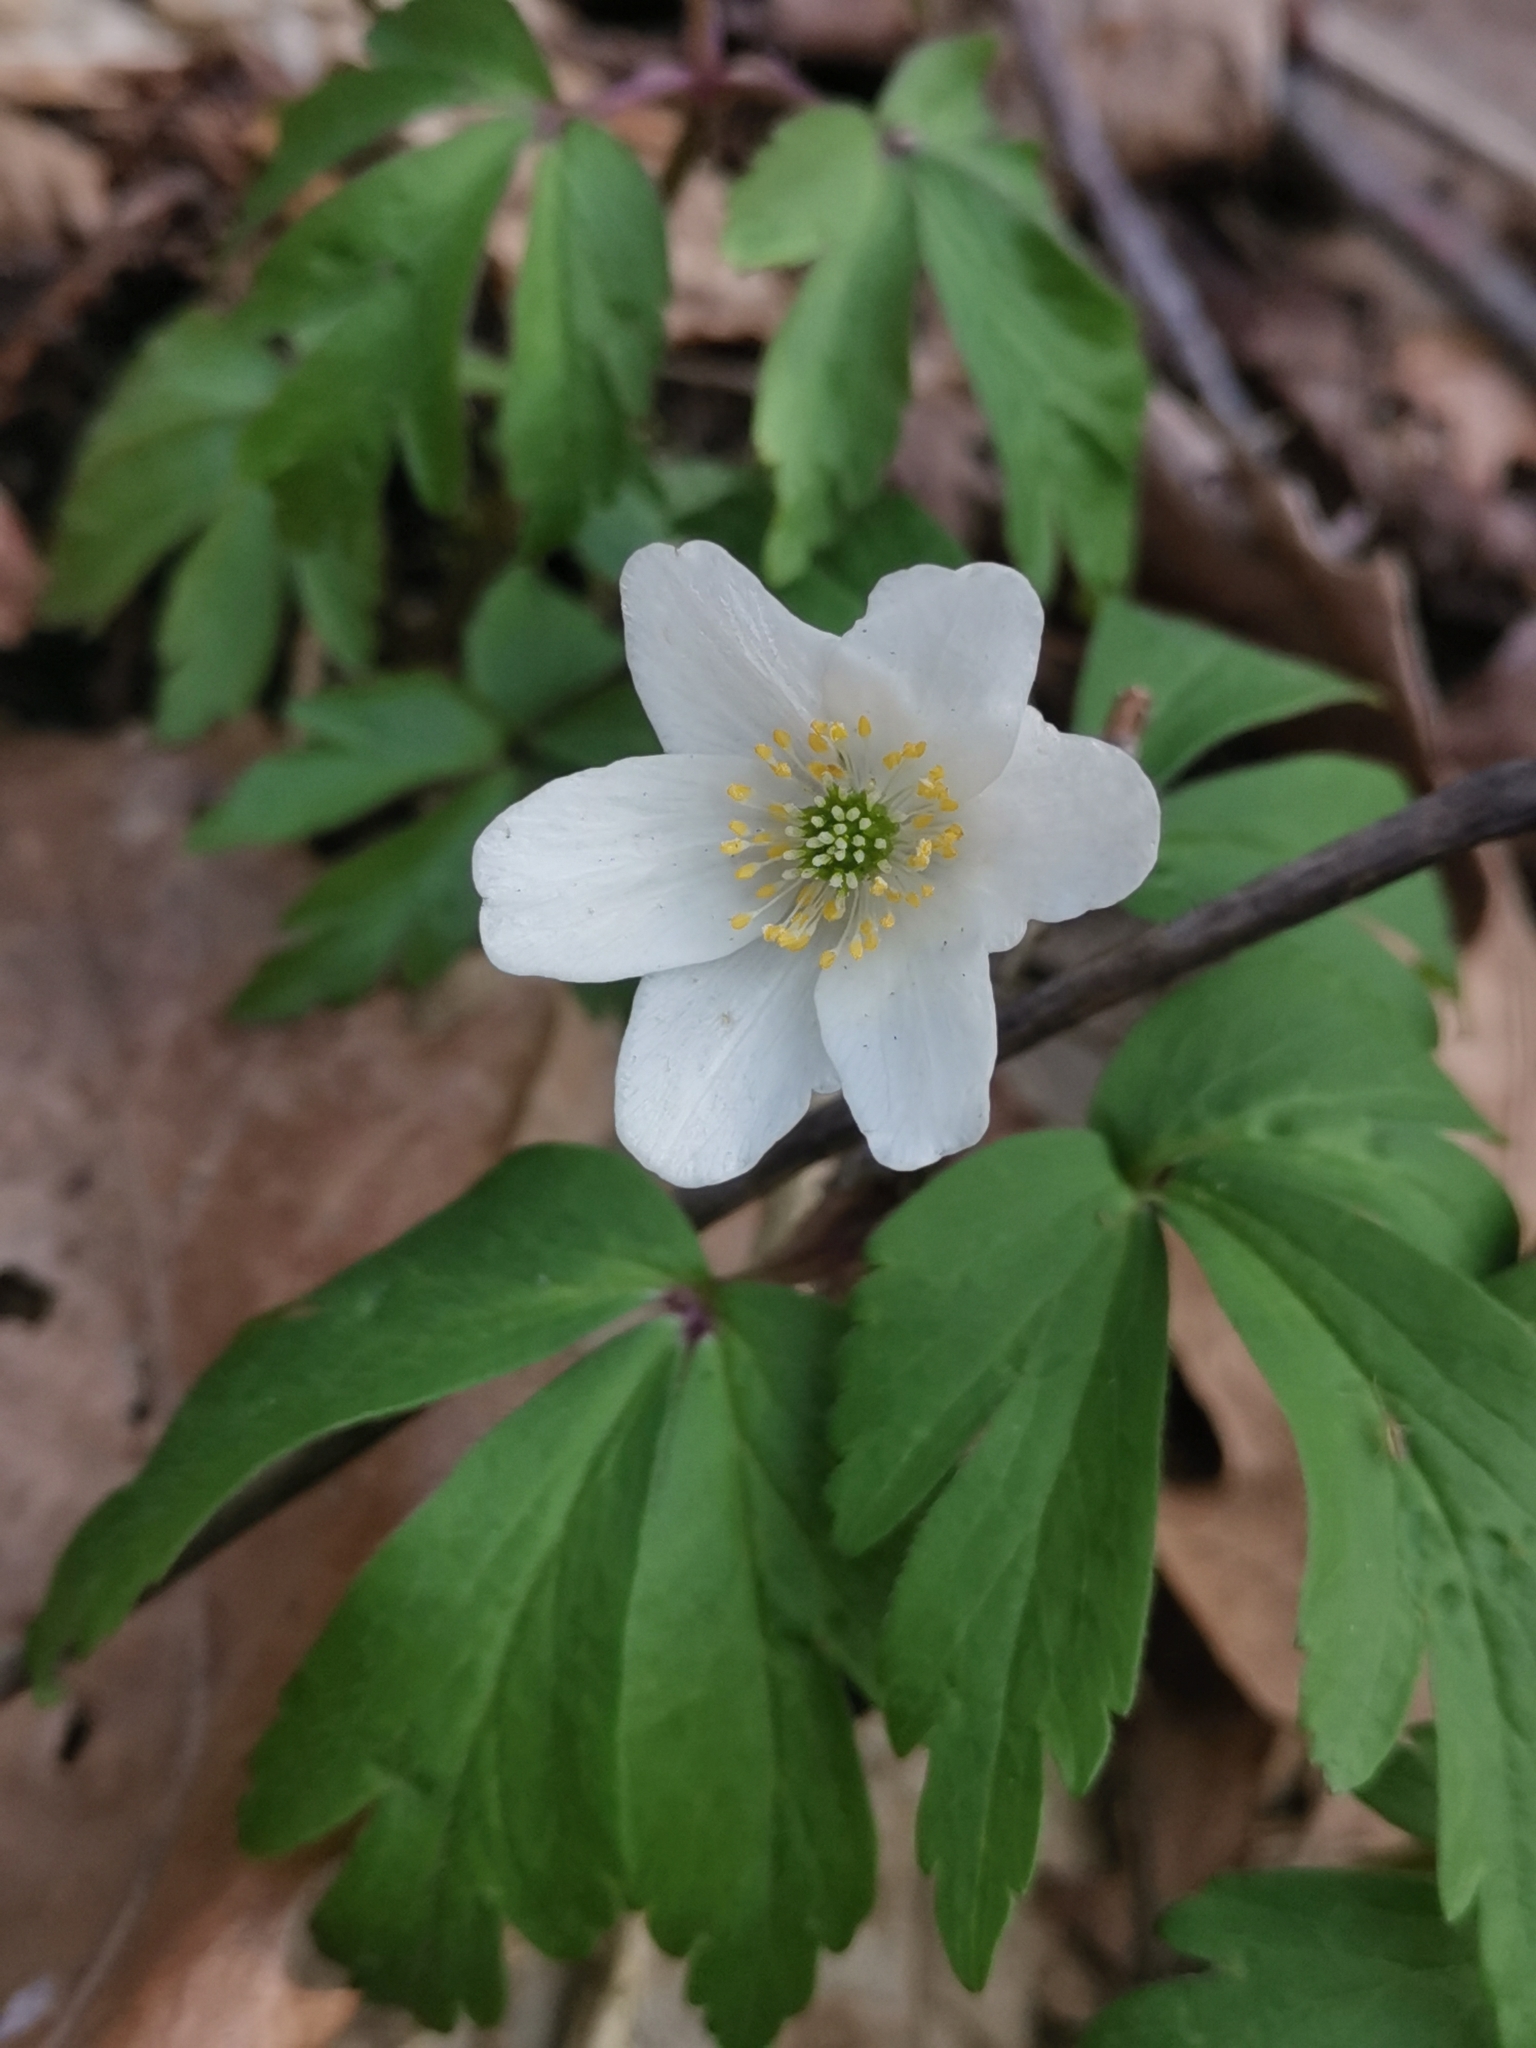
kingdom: Plantae
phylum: Tracheophyta
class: Magnoliopsida
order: Ranunculales
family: Ranunculaceae
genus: Anemone
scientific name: Anemone nemorosa
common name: Wood anemone
